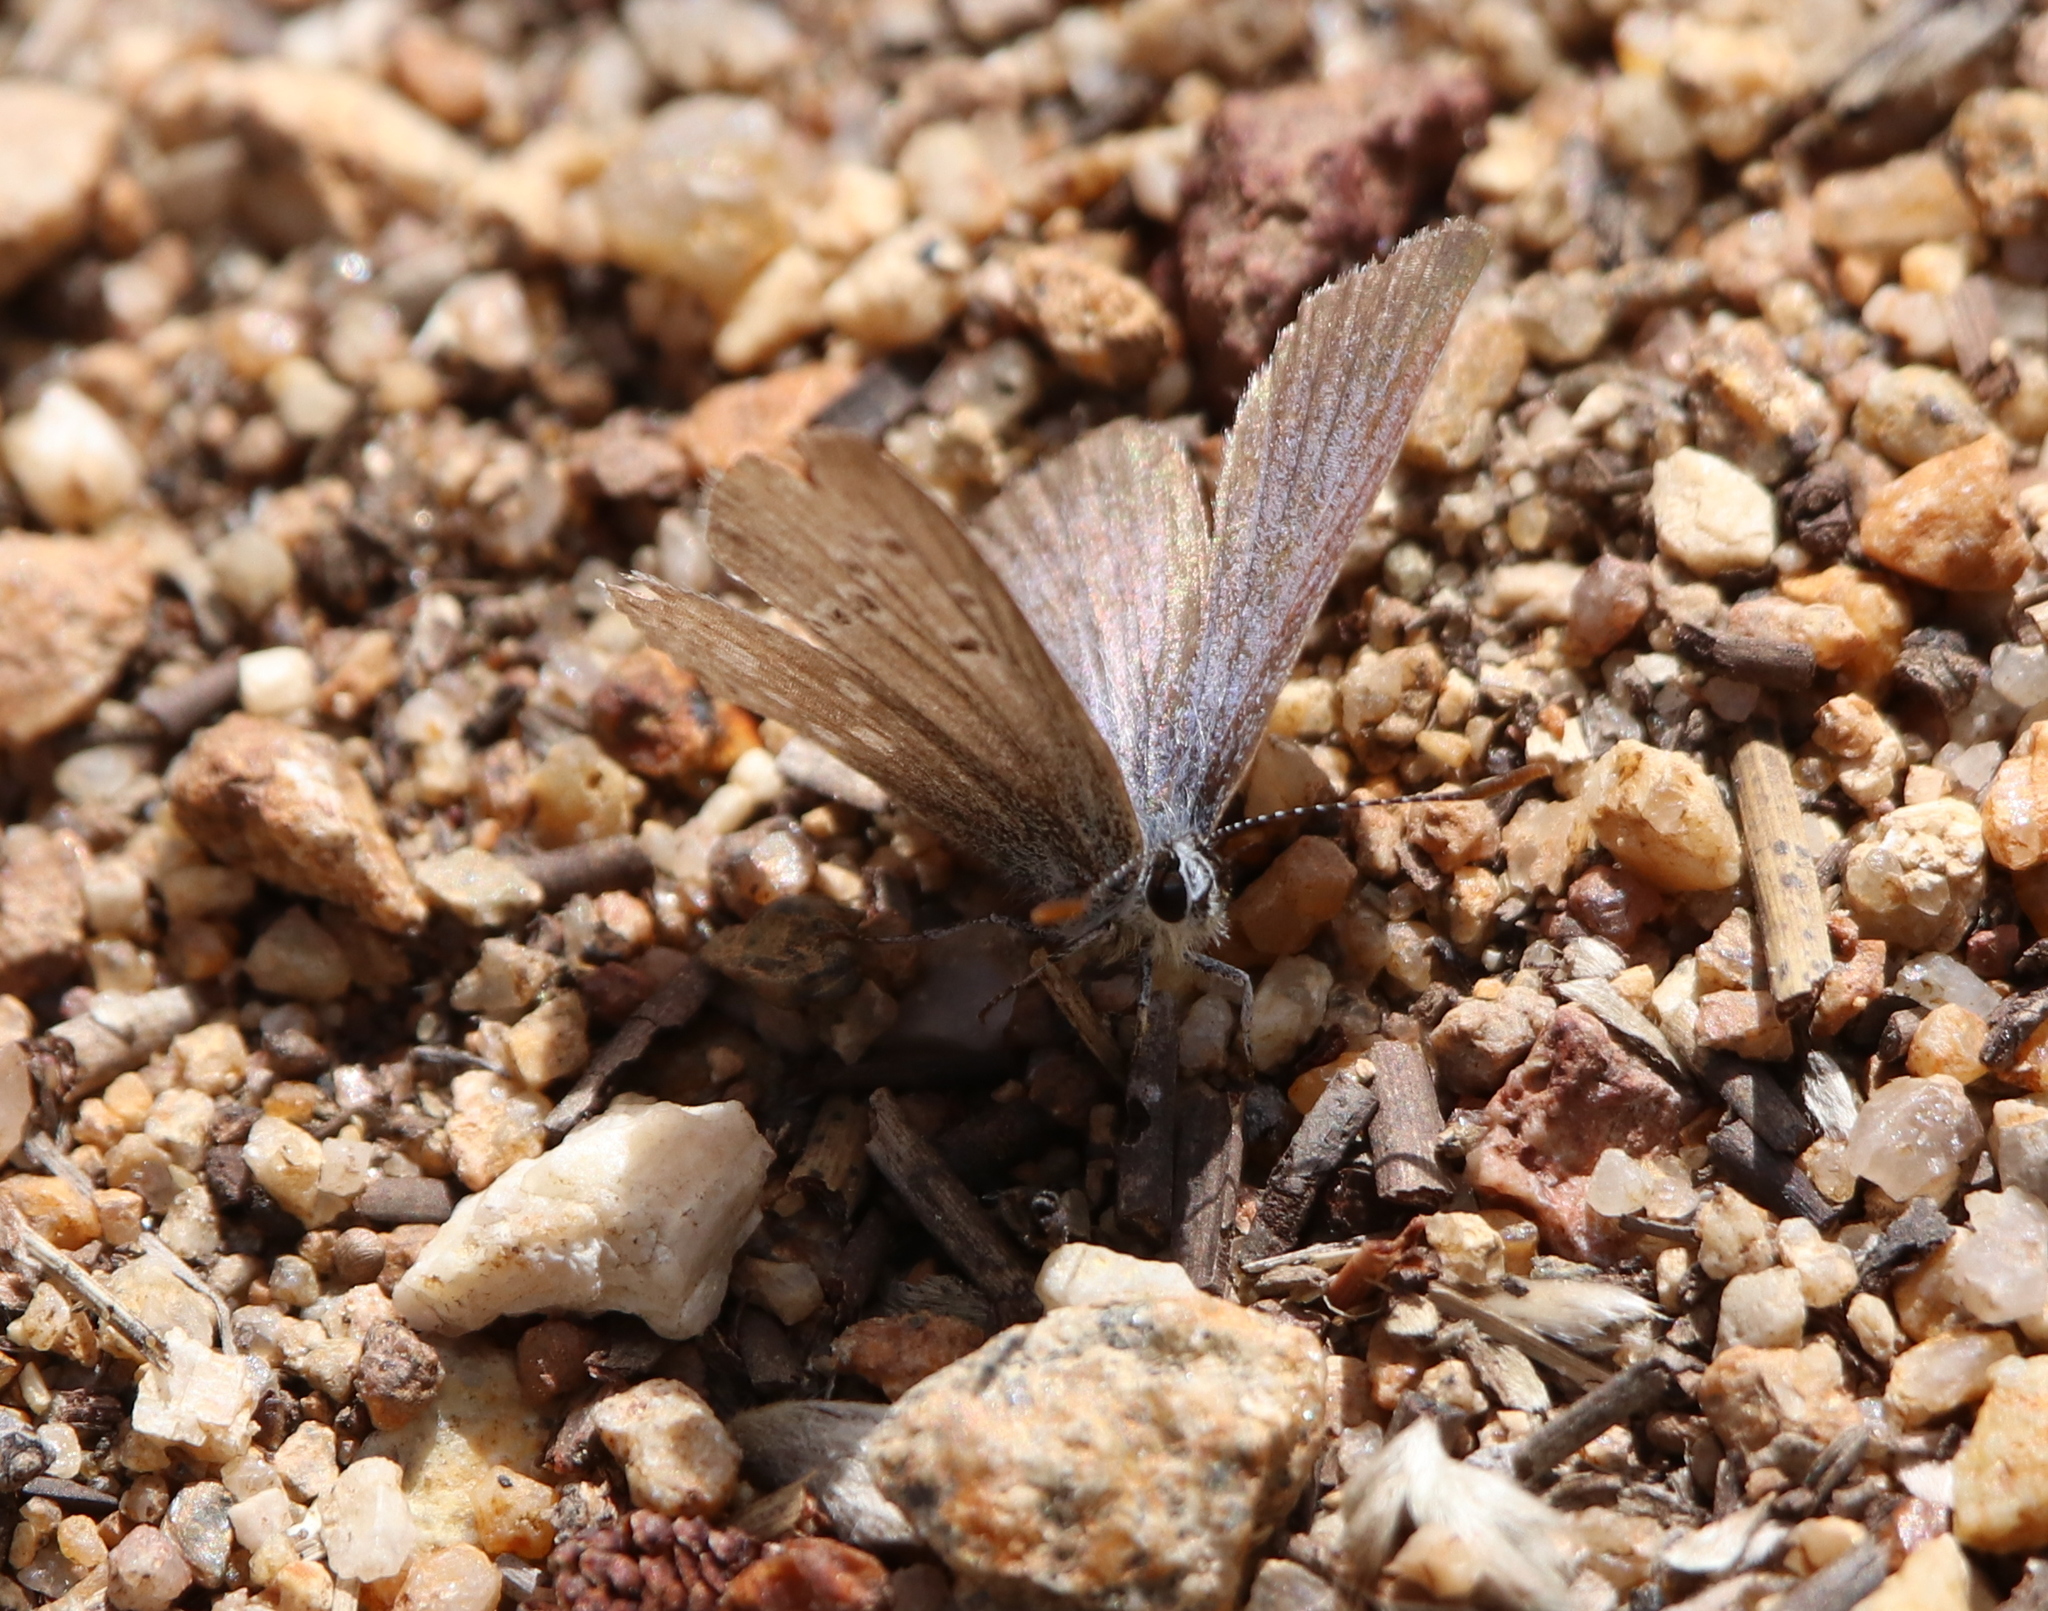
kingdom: Animalia
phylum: Arthropoda
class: Insecta
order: Lepidoptera
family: Lycaenidae
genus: Icaricia
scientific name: Icaricia icarioides
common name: Boisduval's blue
